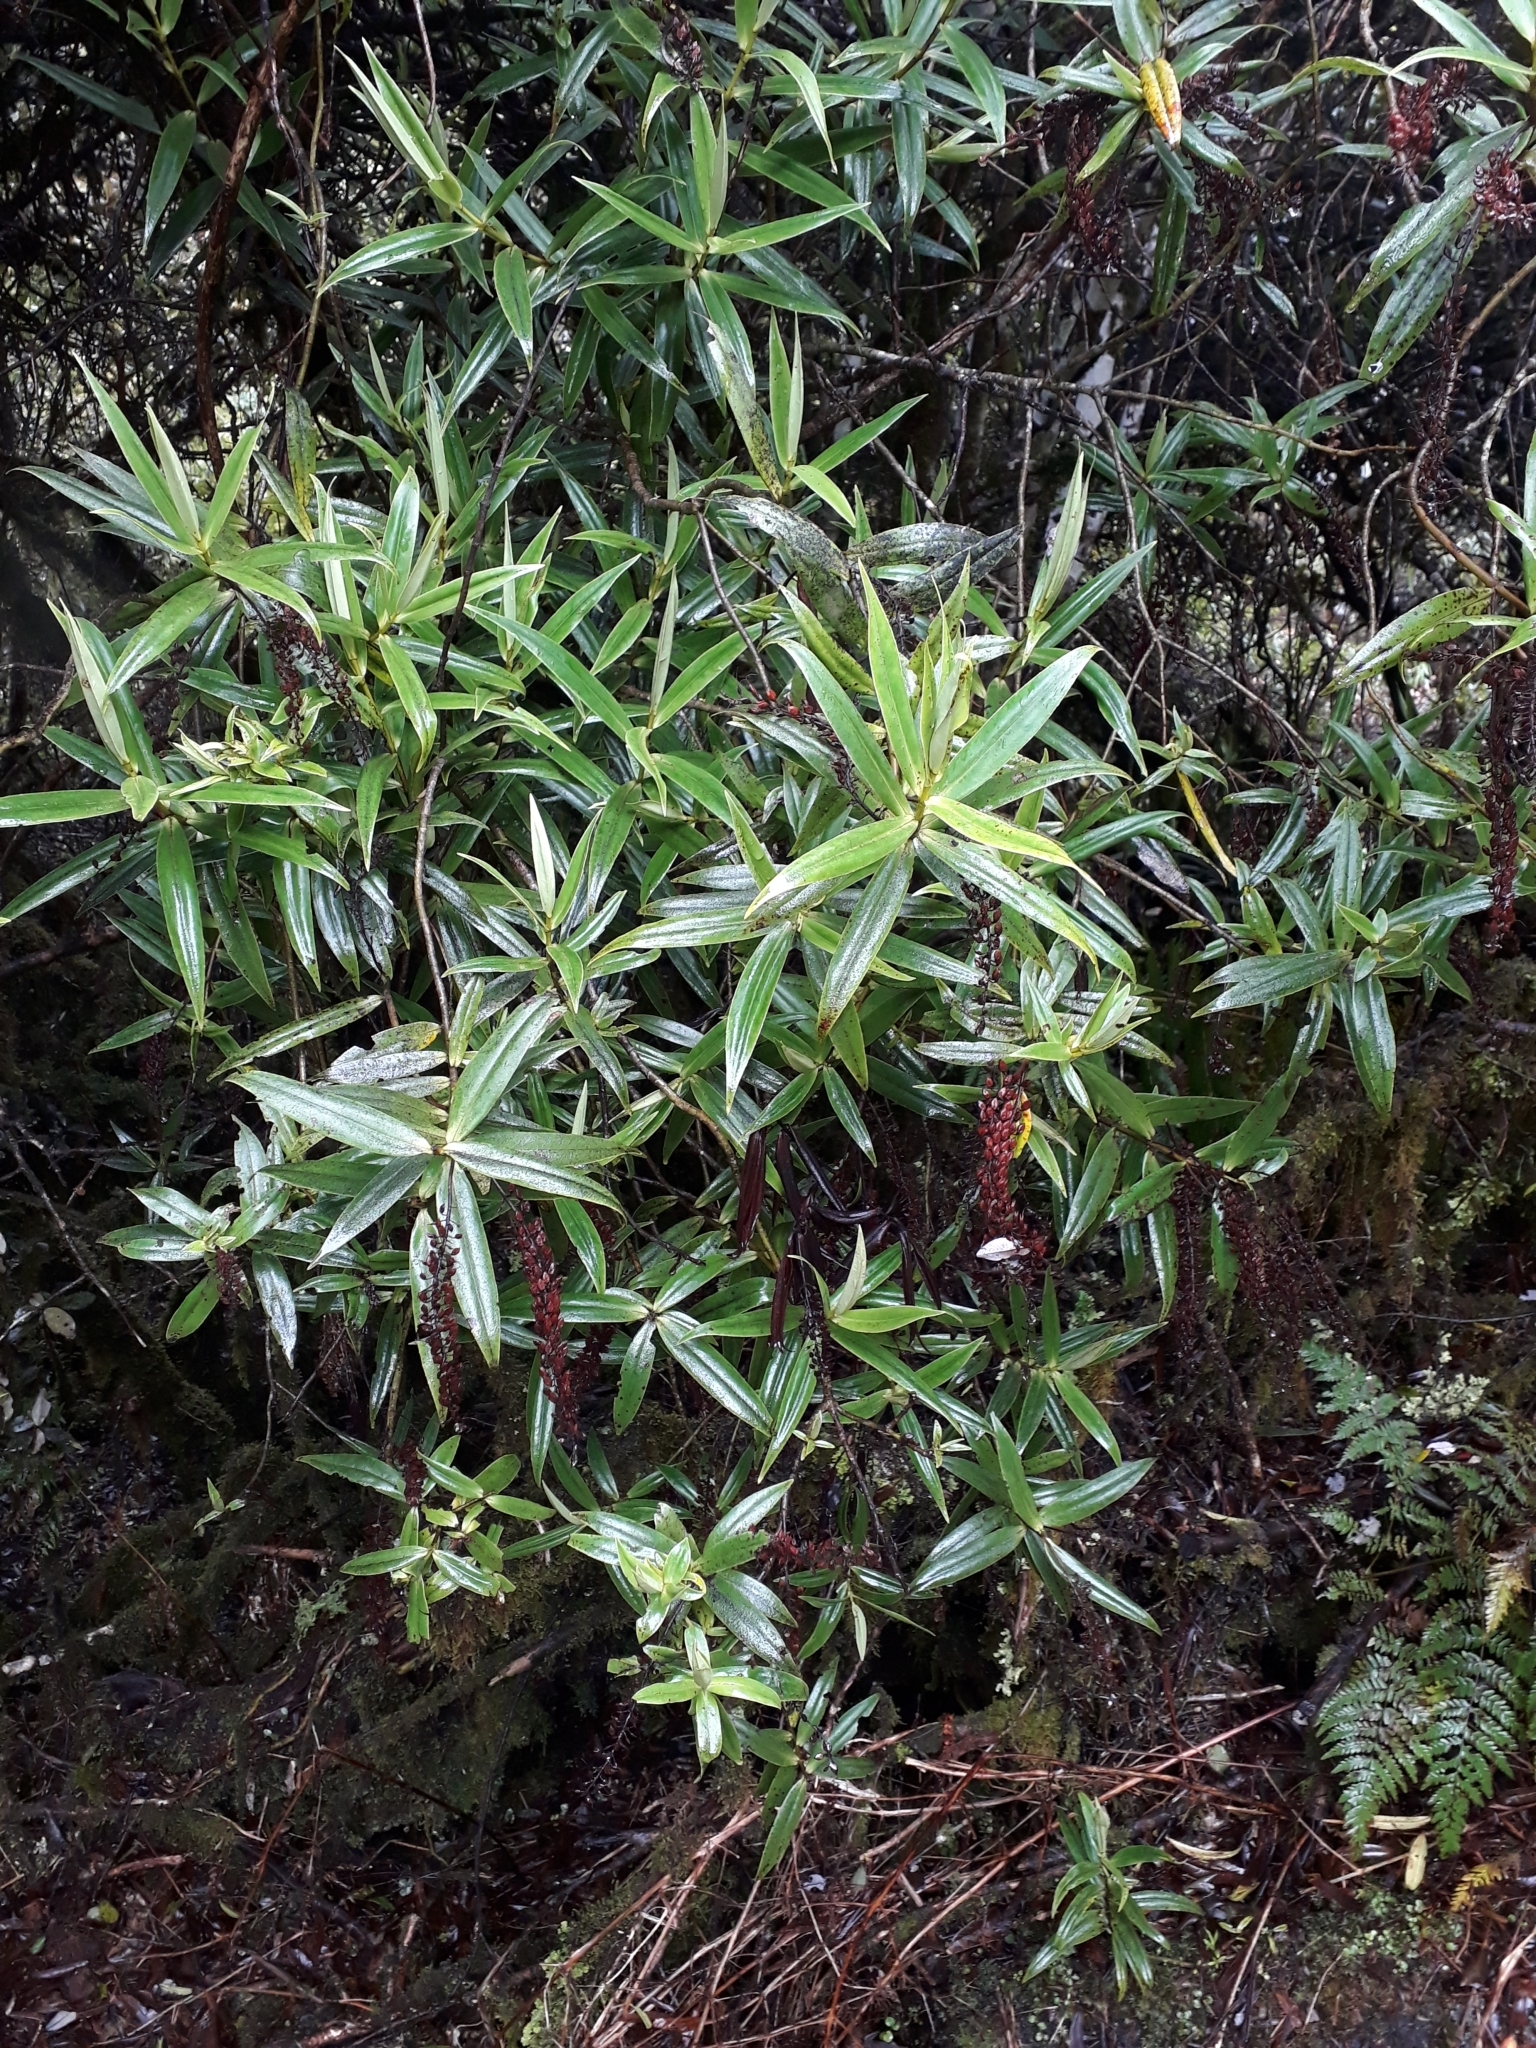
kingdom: Plantae
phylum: Tracheophyta
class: Magnoliopsida
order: Lamiales
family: Plantaginaceae
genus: Veronica
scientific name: Veronica corriganii
